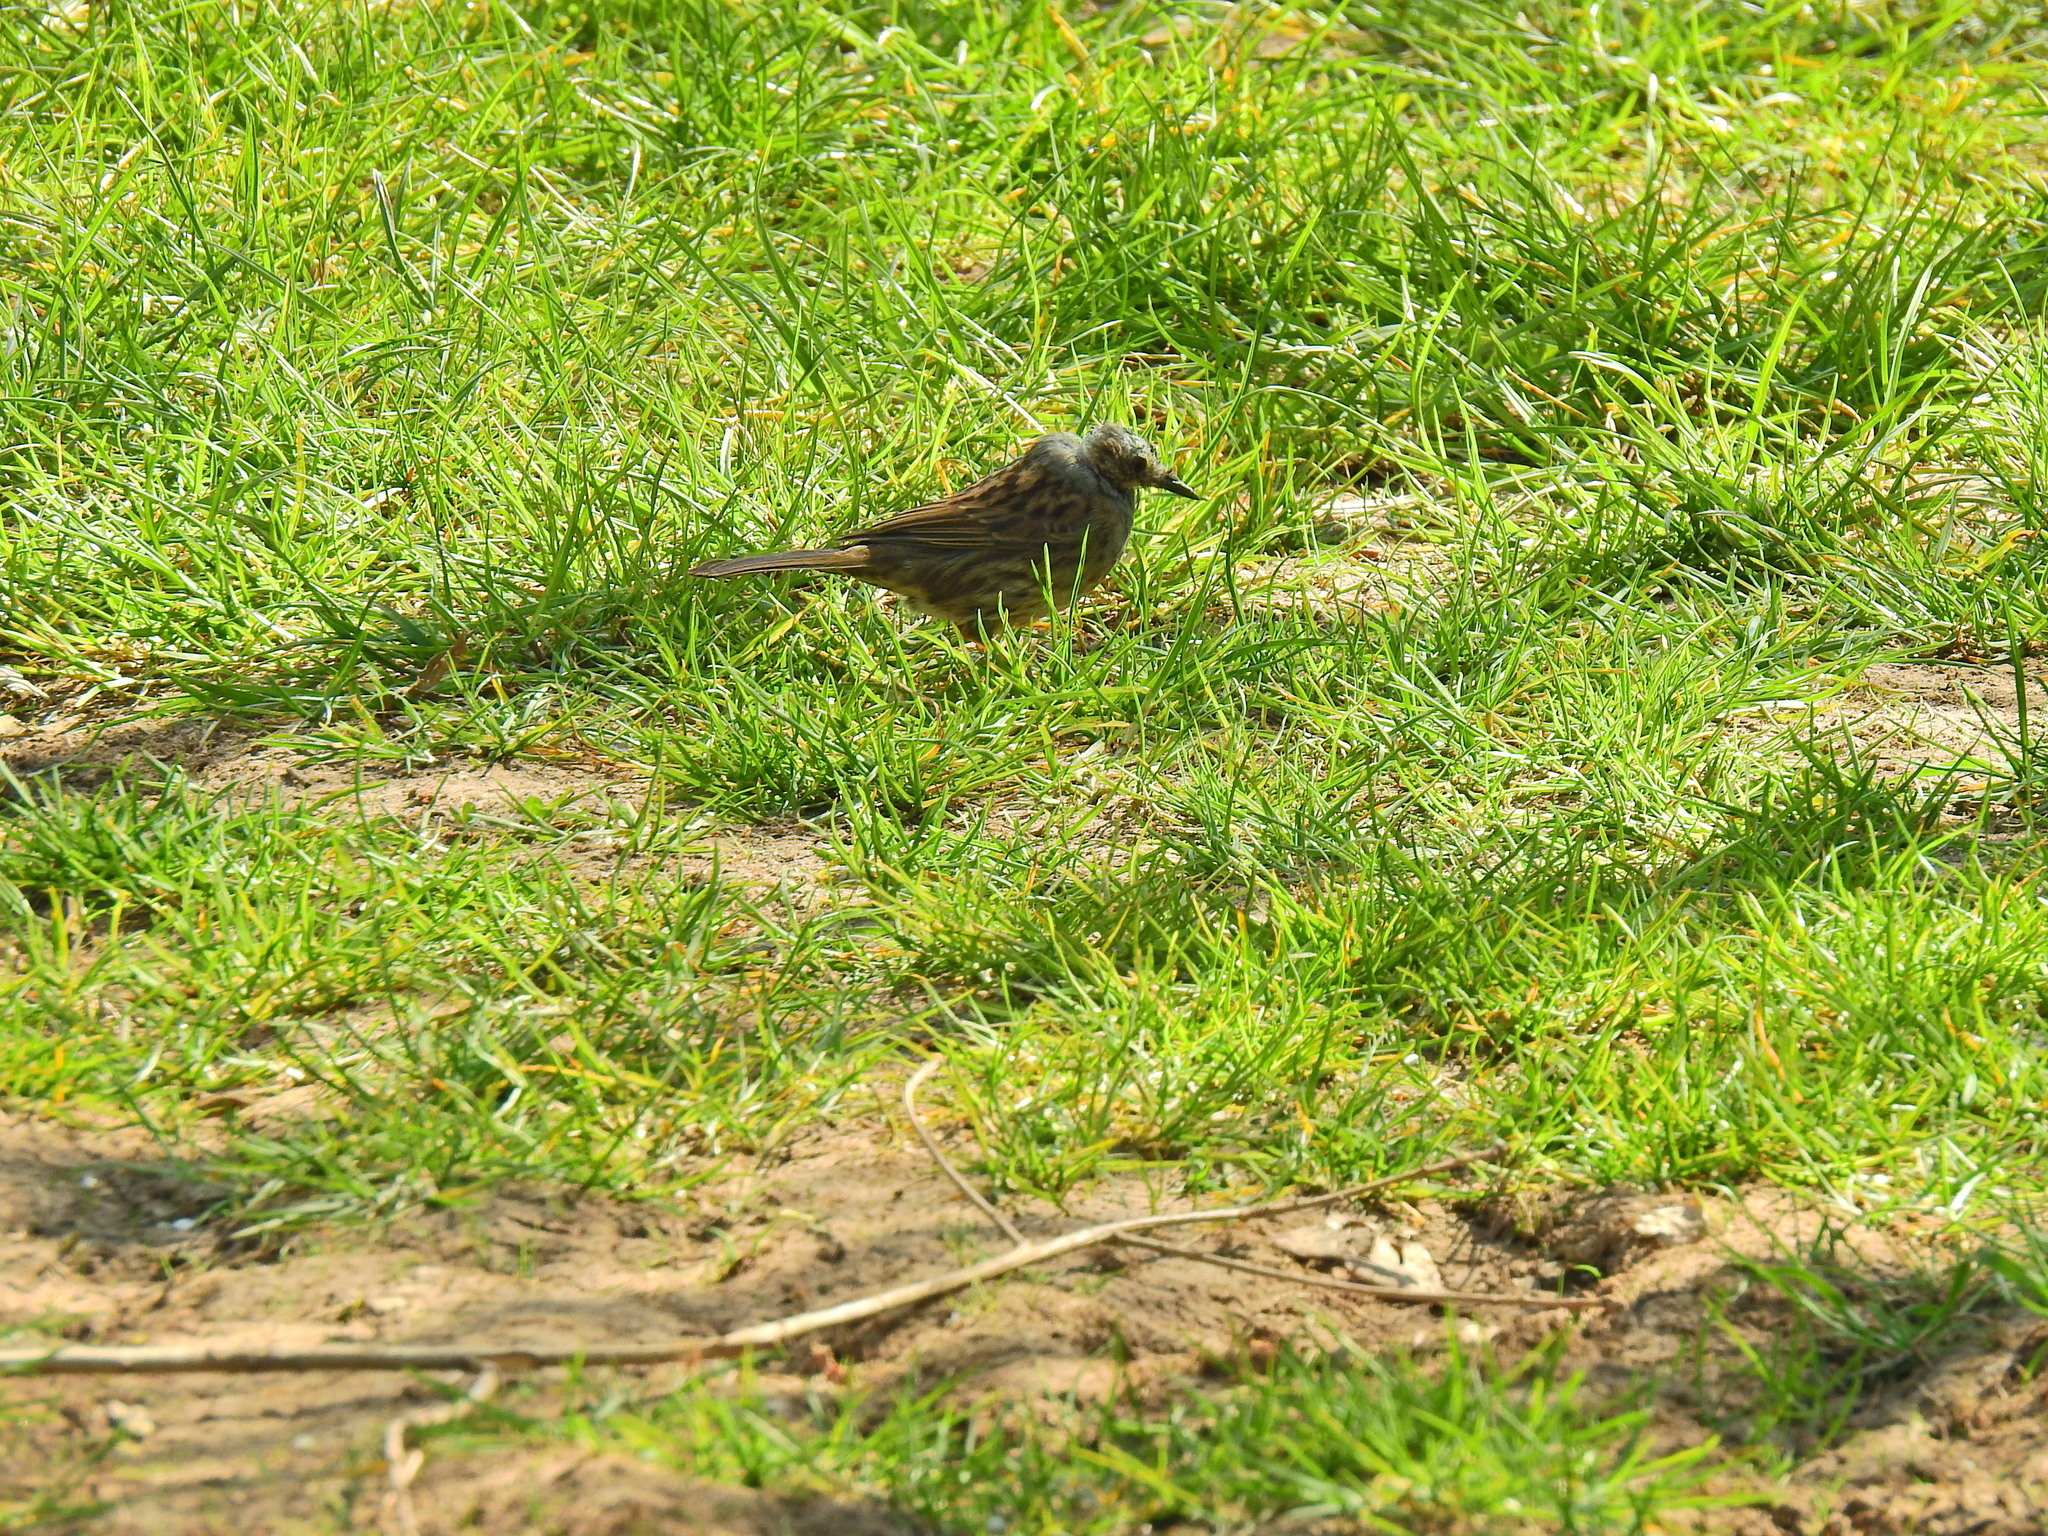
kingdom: Animalia
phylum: Chordata
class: Aves
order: Passeriformes
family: Prunellidae
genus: Prunella
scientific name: Prunella modularis
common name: Dunnock
